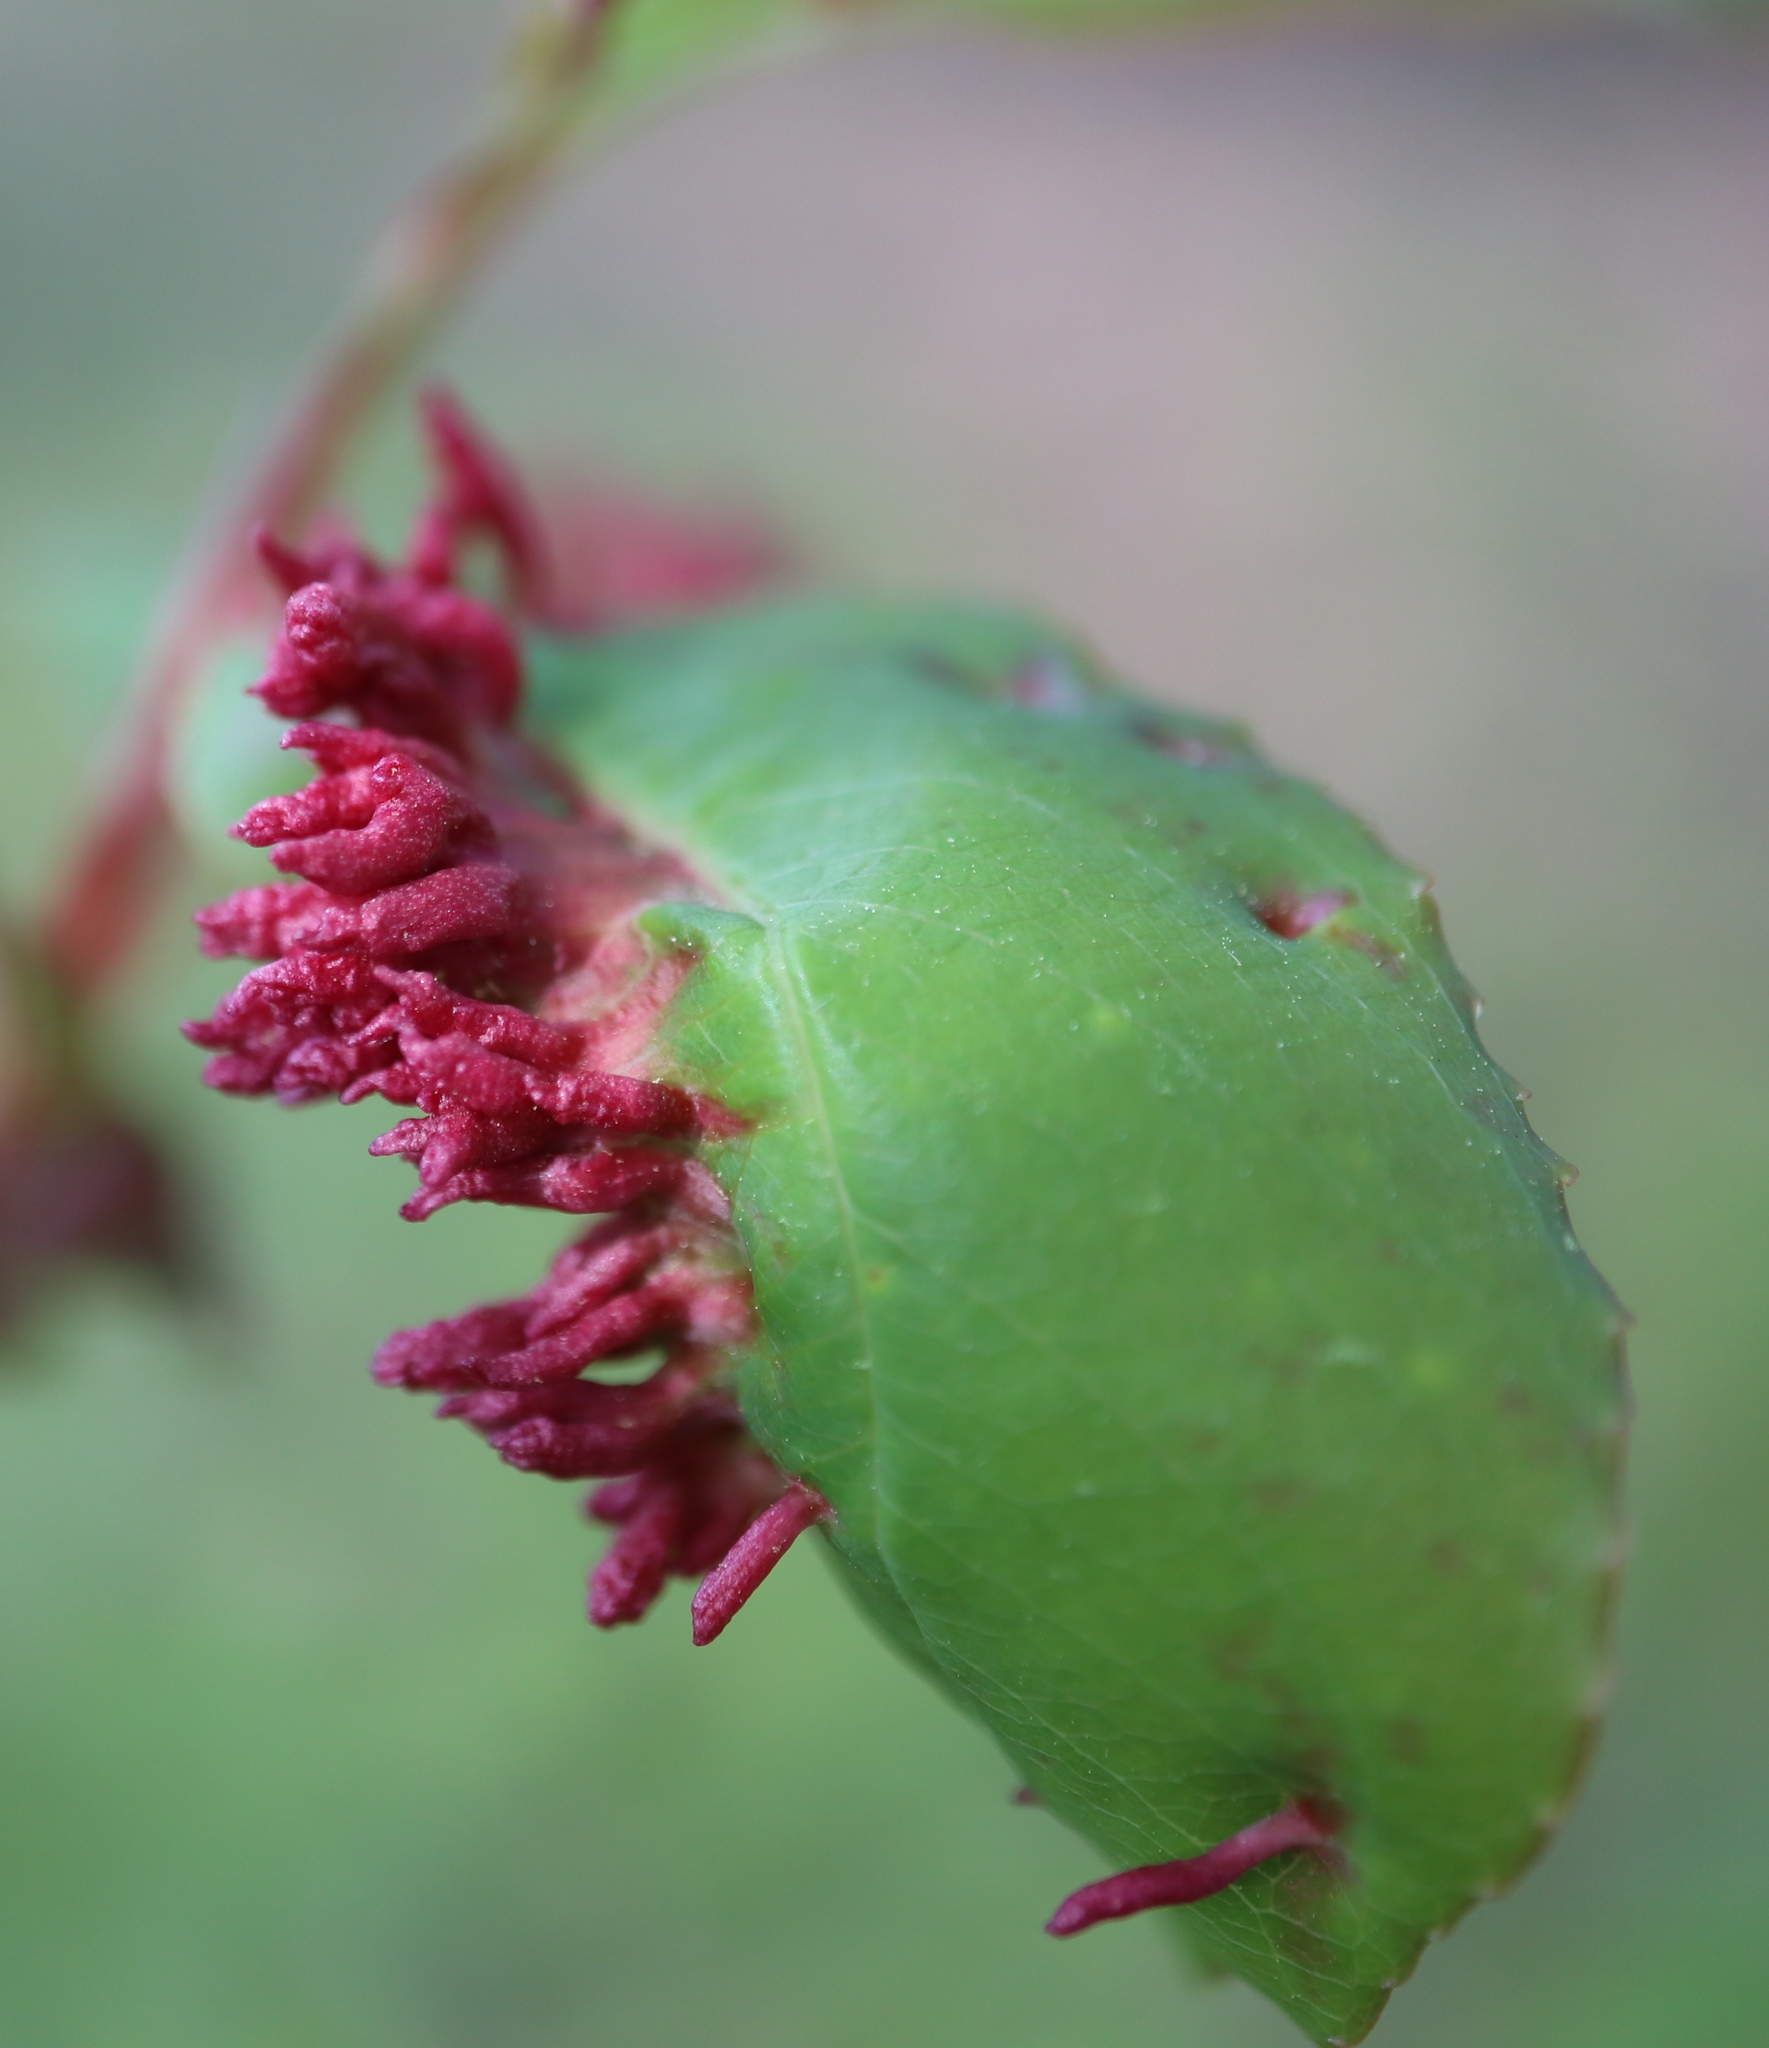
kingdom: Animalia
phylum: Arthropoda
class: Arachnida
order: Trombidiformes
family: Eriophyidae
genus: Eriophyes
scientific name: Eriophyes
